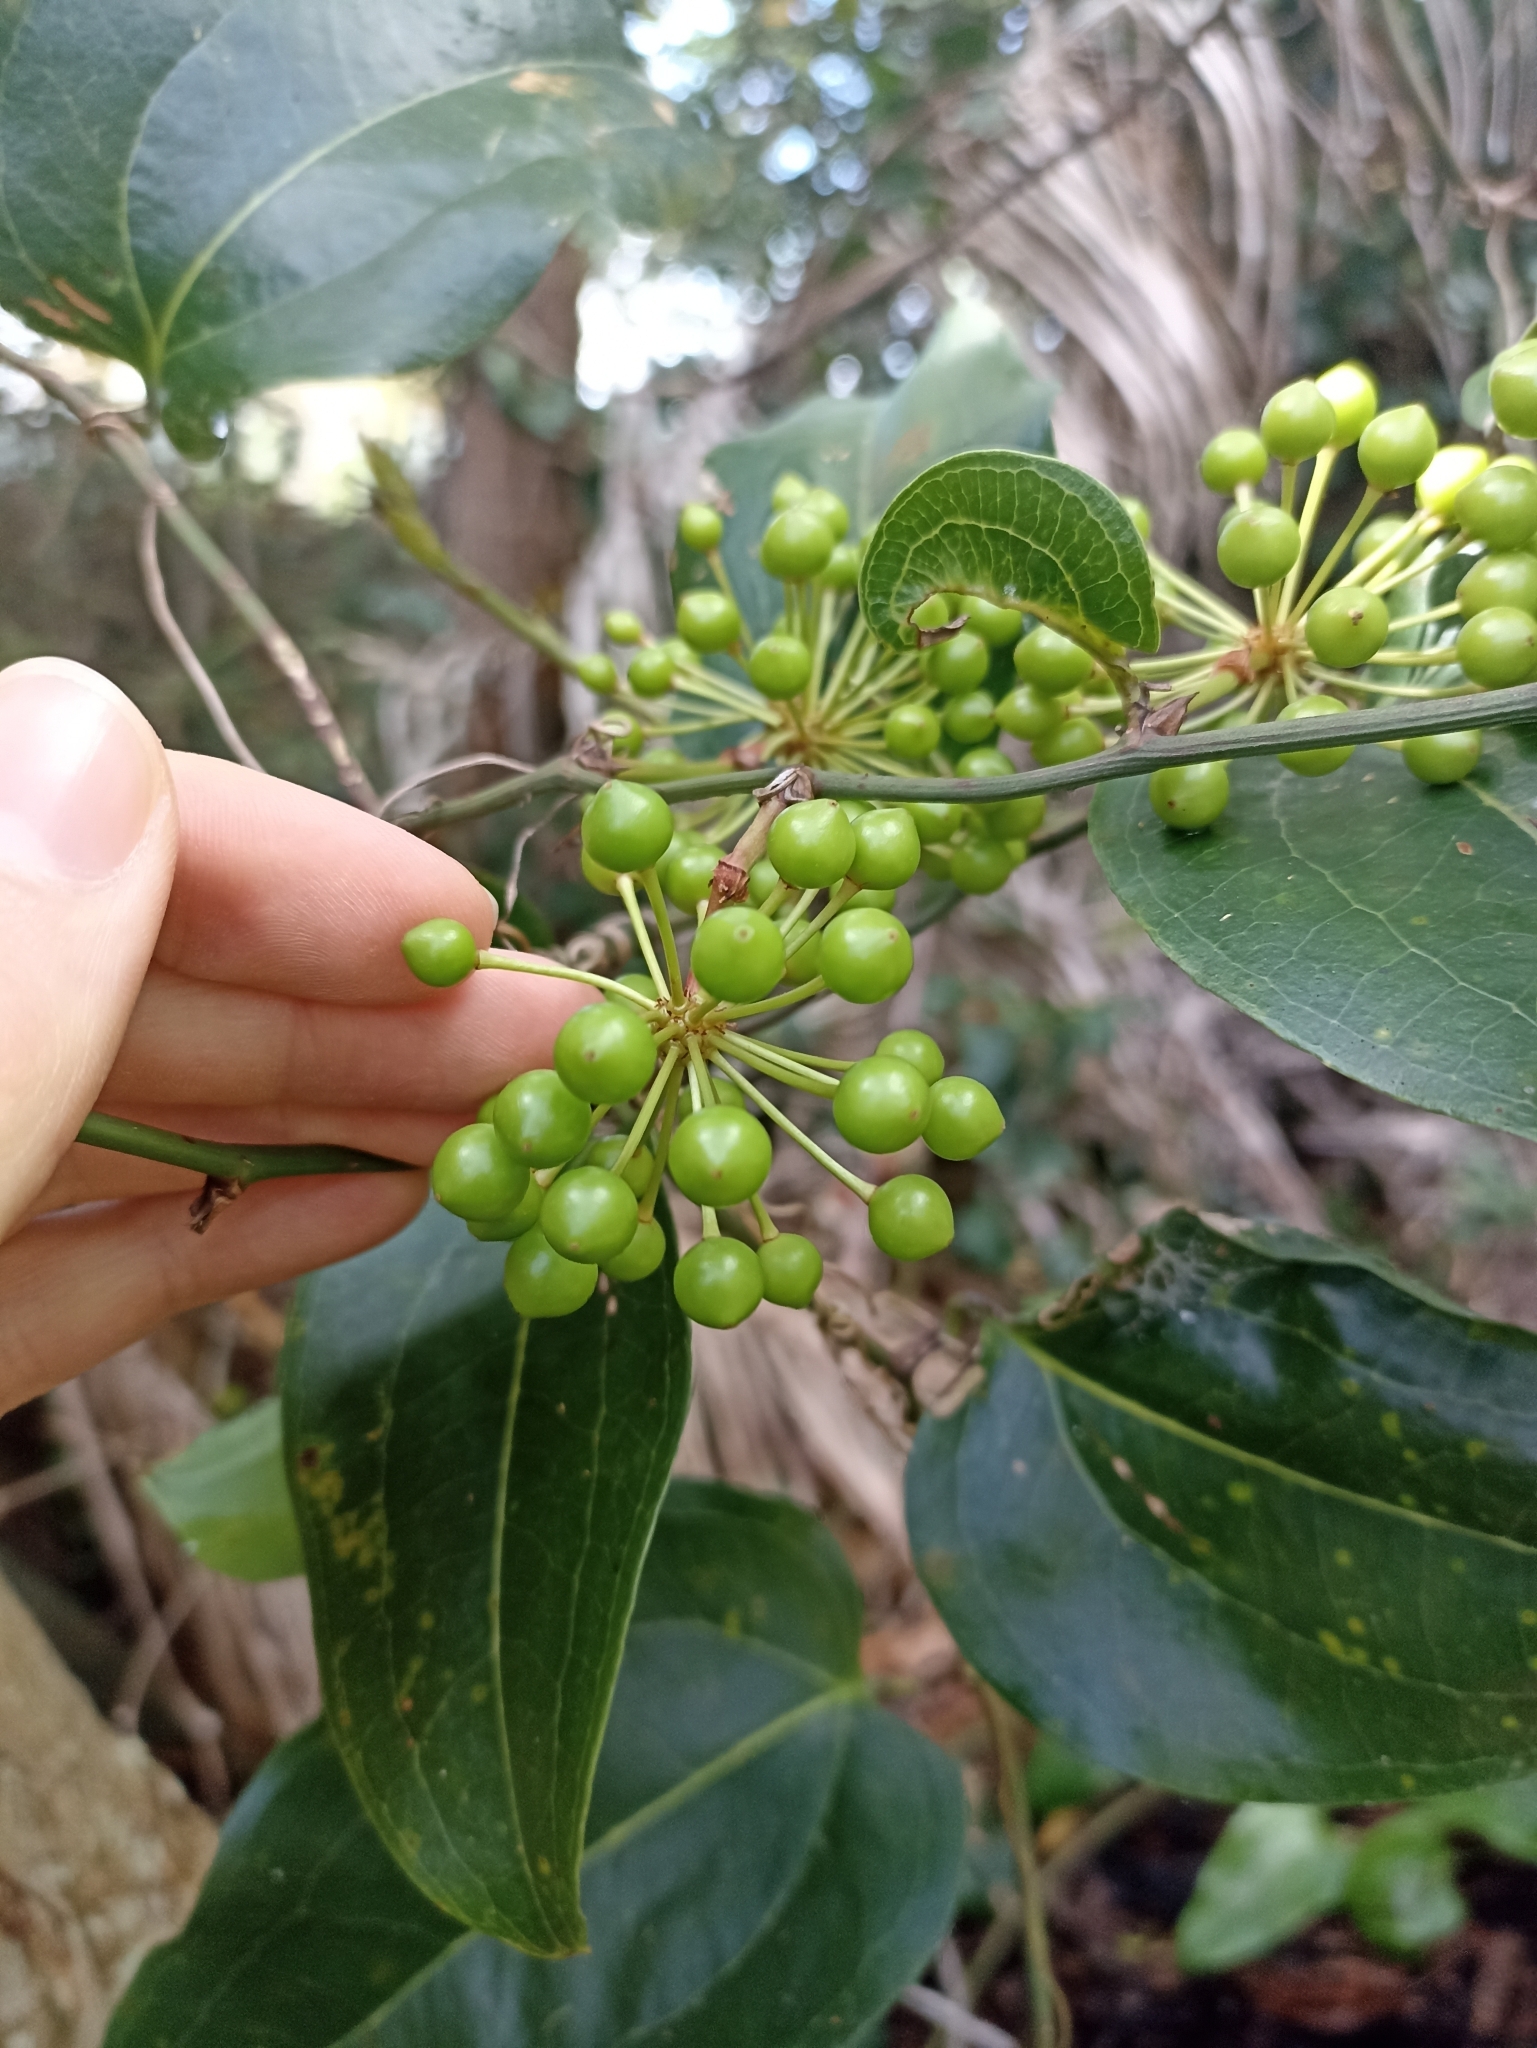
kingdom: Plantae
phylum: Tracheophyta
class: Liliopsida
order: Liliales
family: Smilacaceae
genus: Smilax
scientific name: Smilax australis
